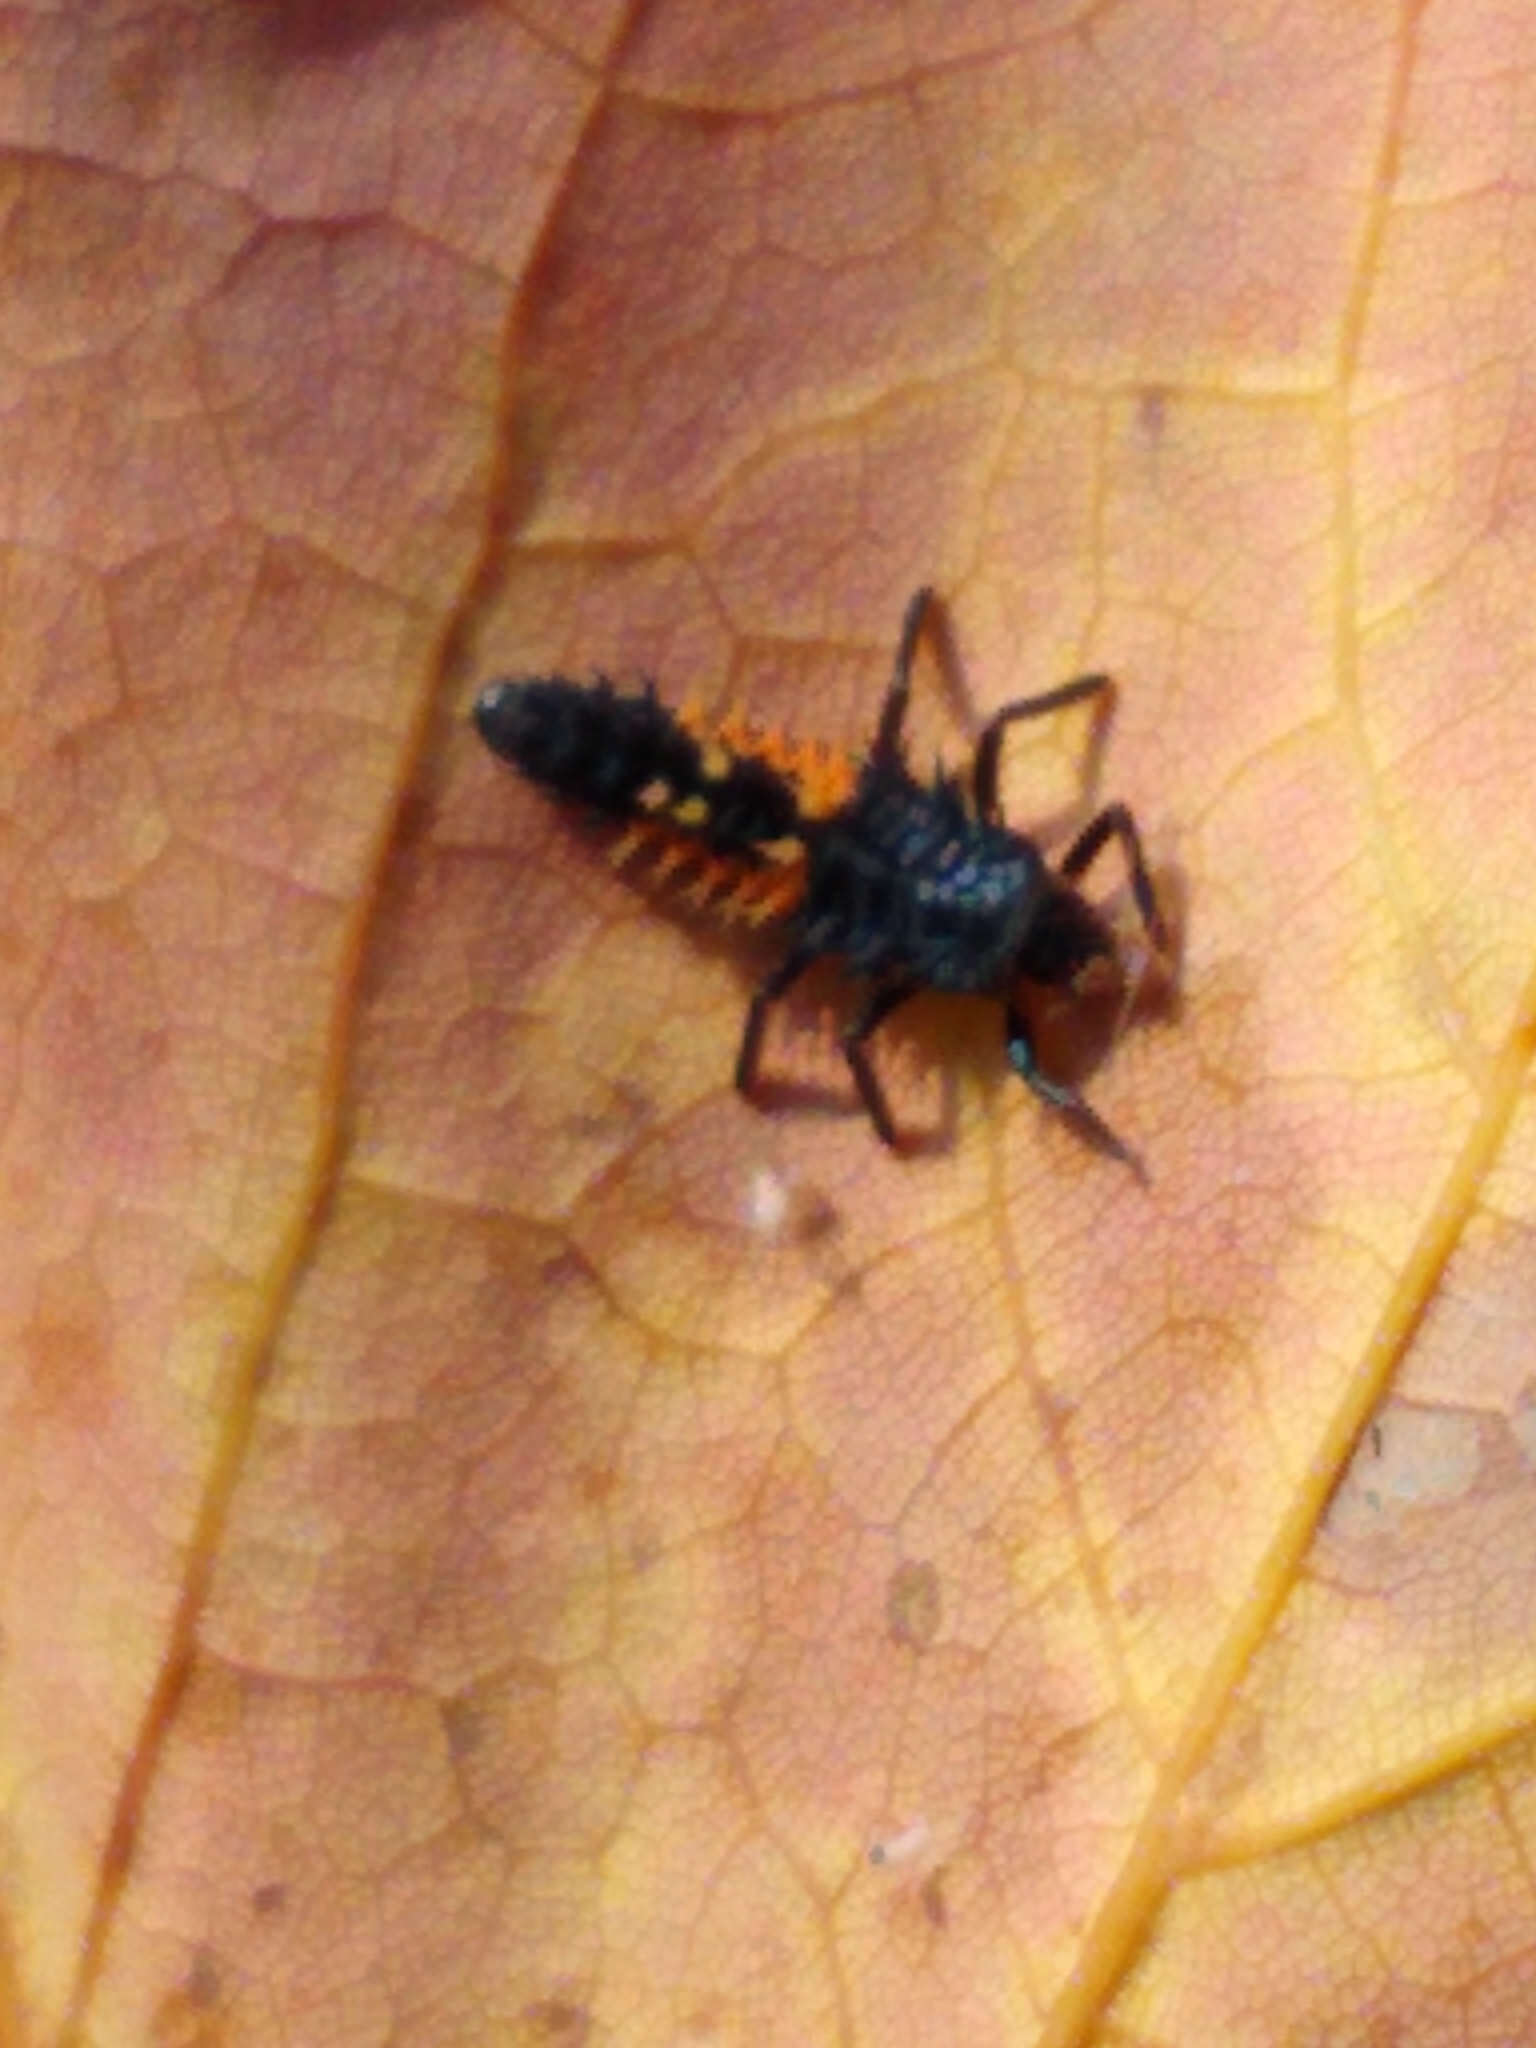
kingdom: Animalia
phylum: Arthropoda
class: Insecta
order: Coleoptera
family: Coccinellidae
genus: Harmonia
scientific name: Harmonia axyridis
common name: Harlequin ladybird
